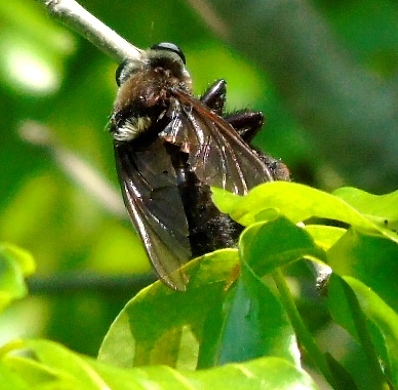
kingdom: Animalia
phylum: Arthropoda
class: Insecta
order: Diptera
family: Asilidae
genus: Mallophora
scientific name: Mallophora
